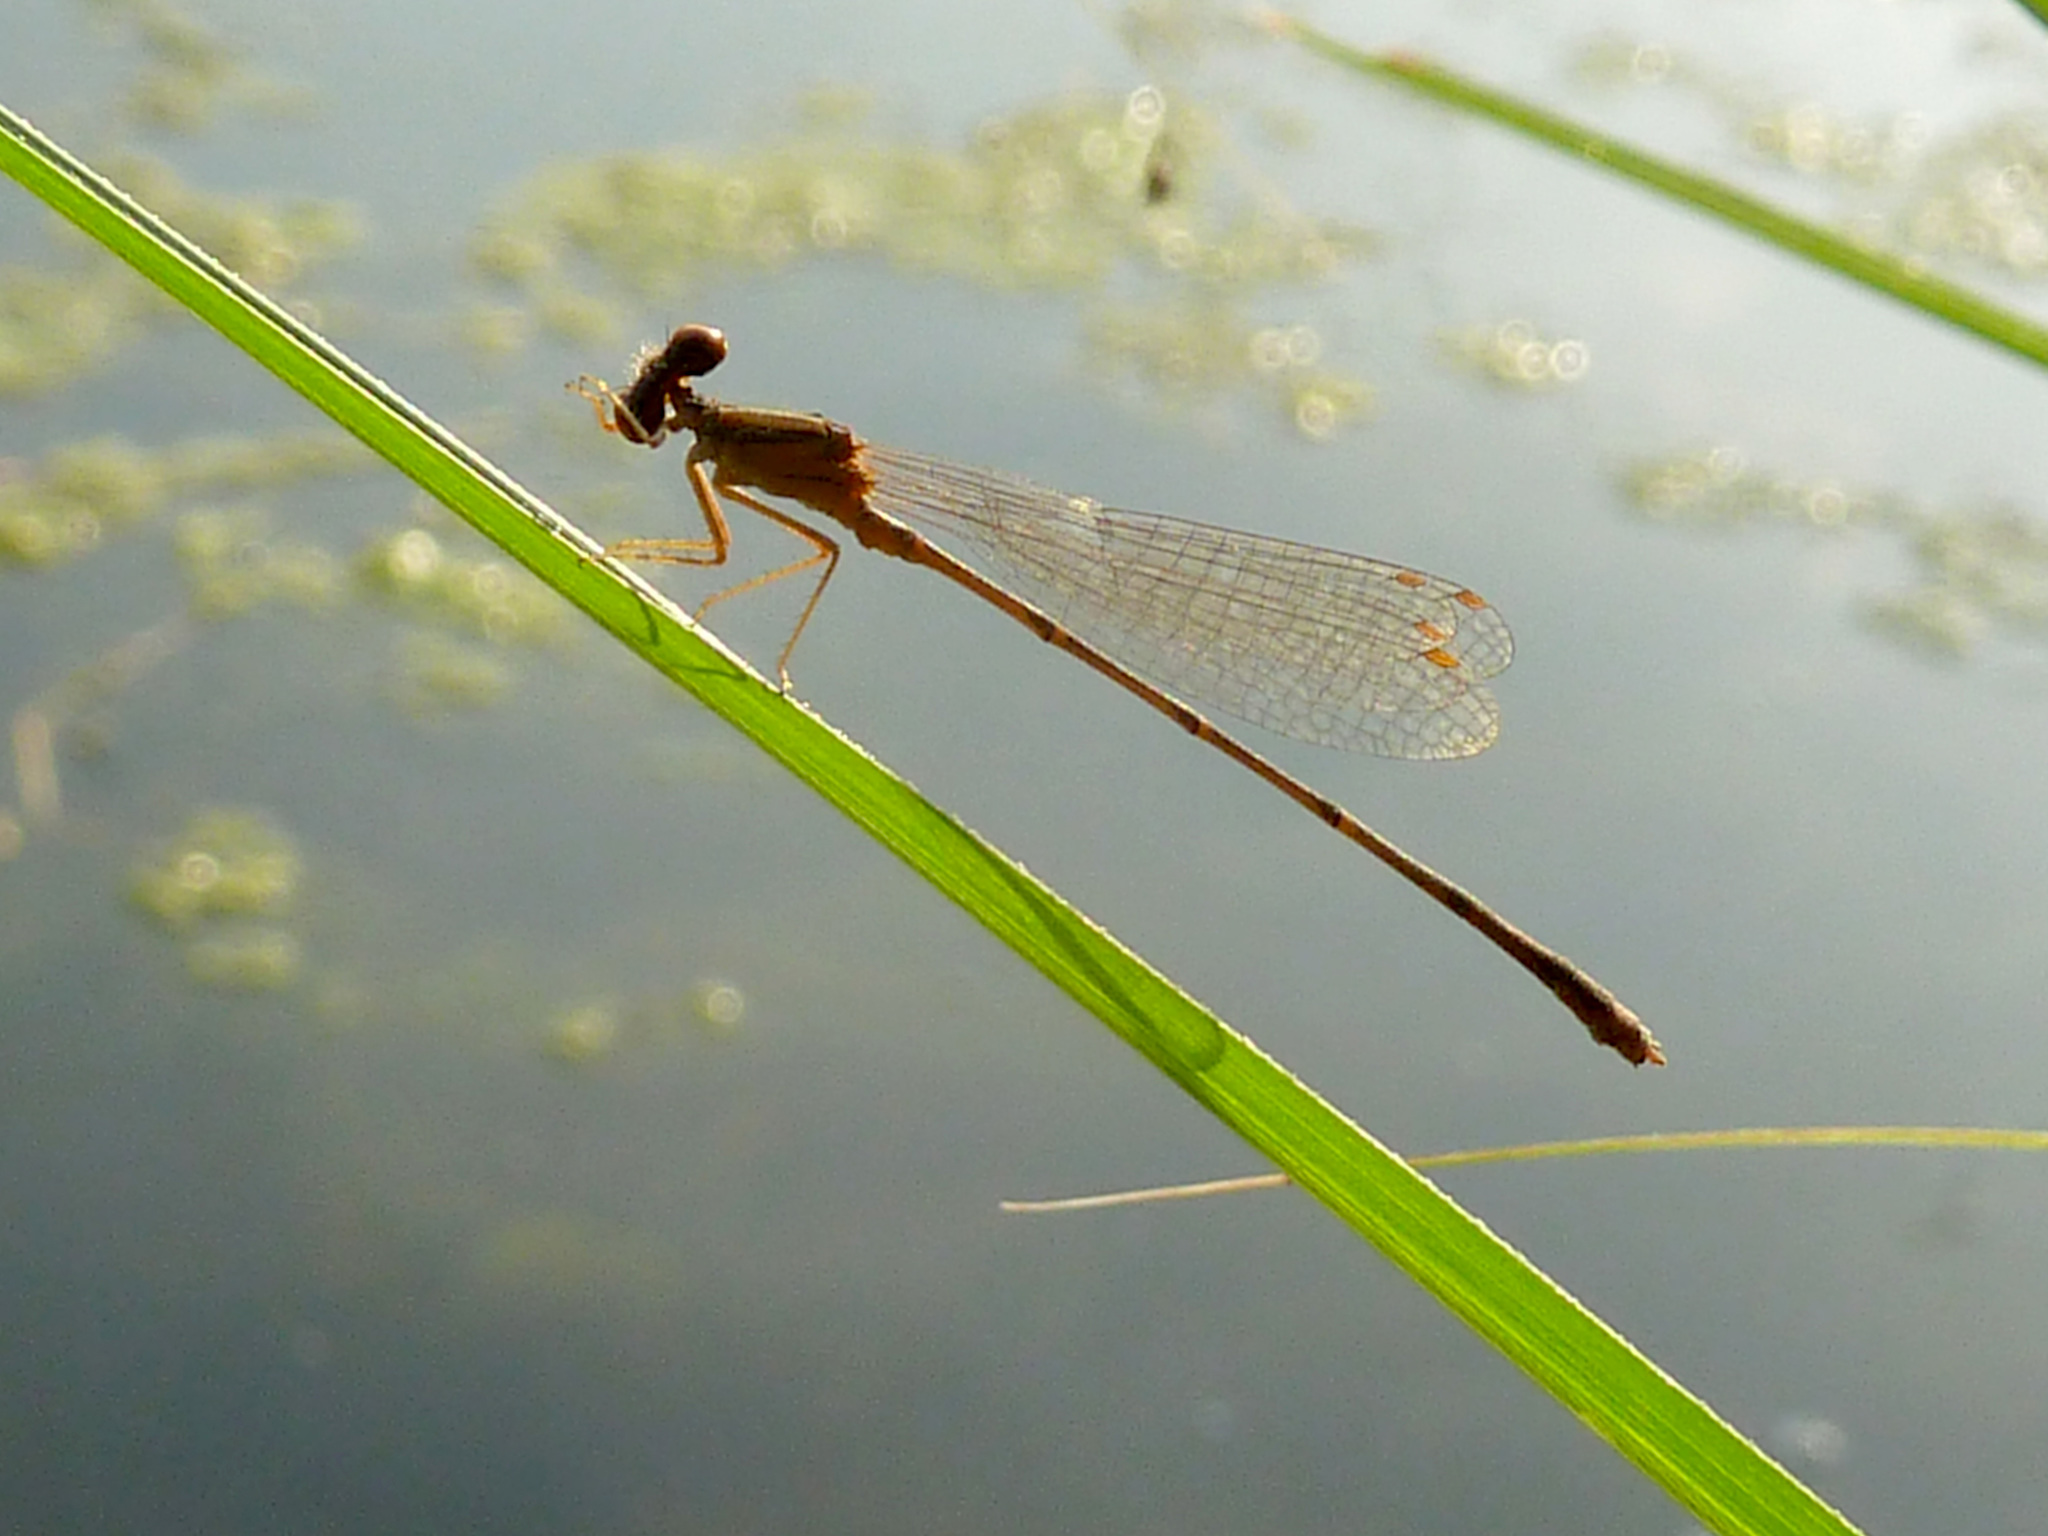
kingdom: Animalia
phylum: Arthropoda
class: Insecta
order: Odonata
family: Coenagrionidae
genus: Enallagma
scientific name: Enallagma signatum
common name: Orange bluet
